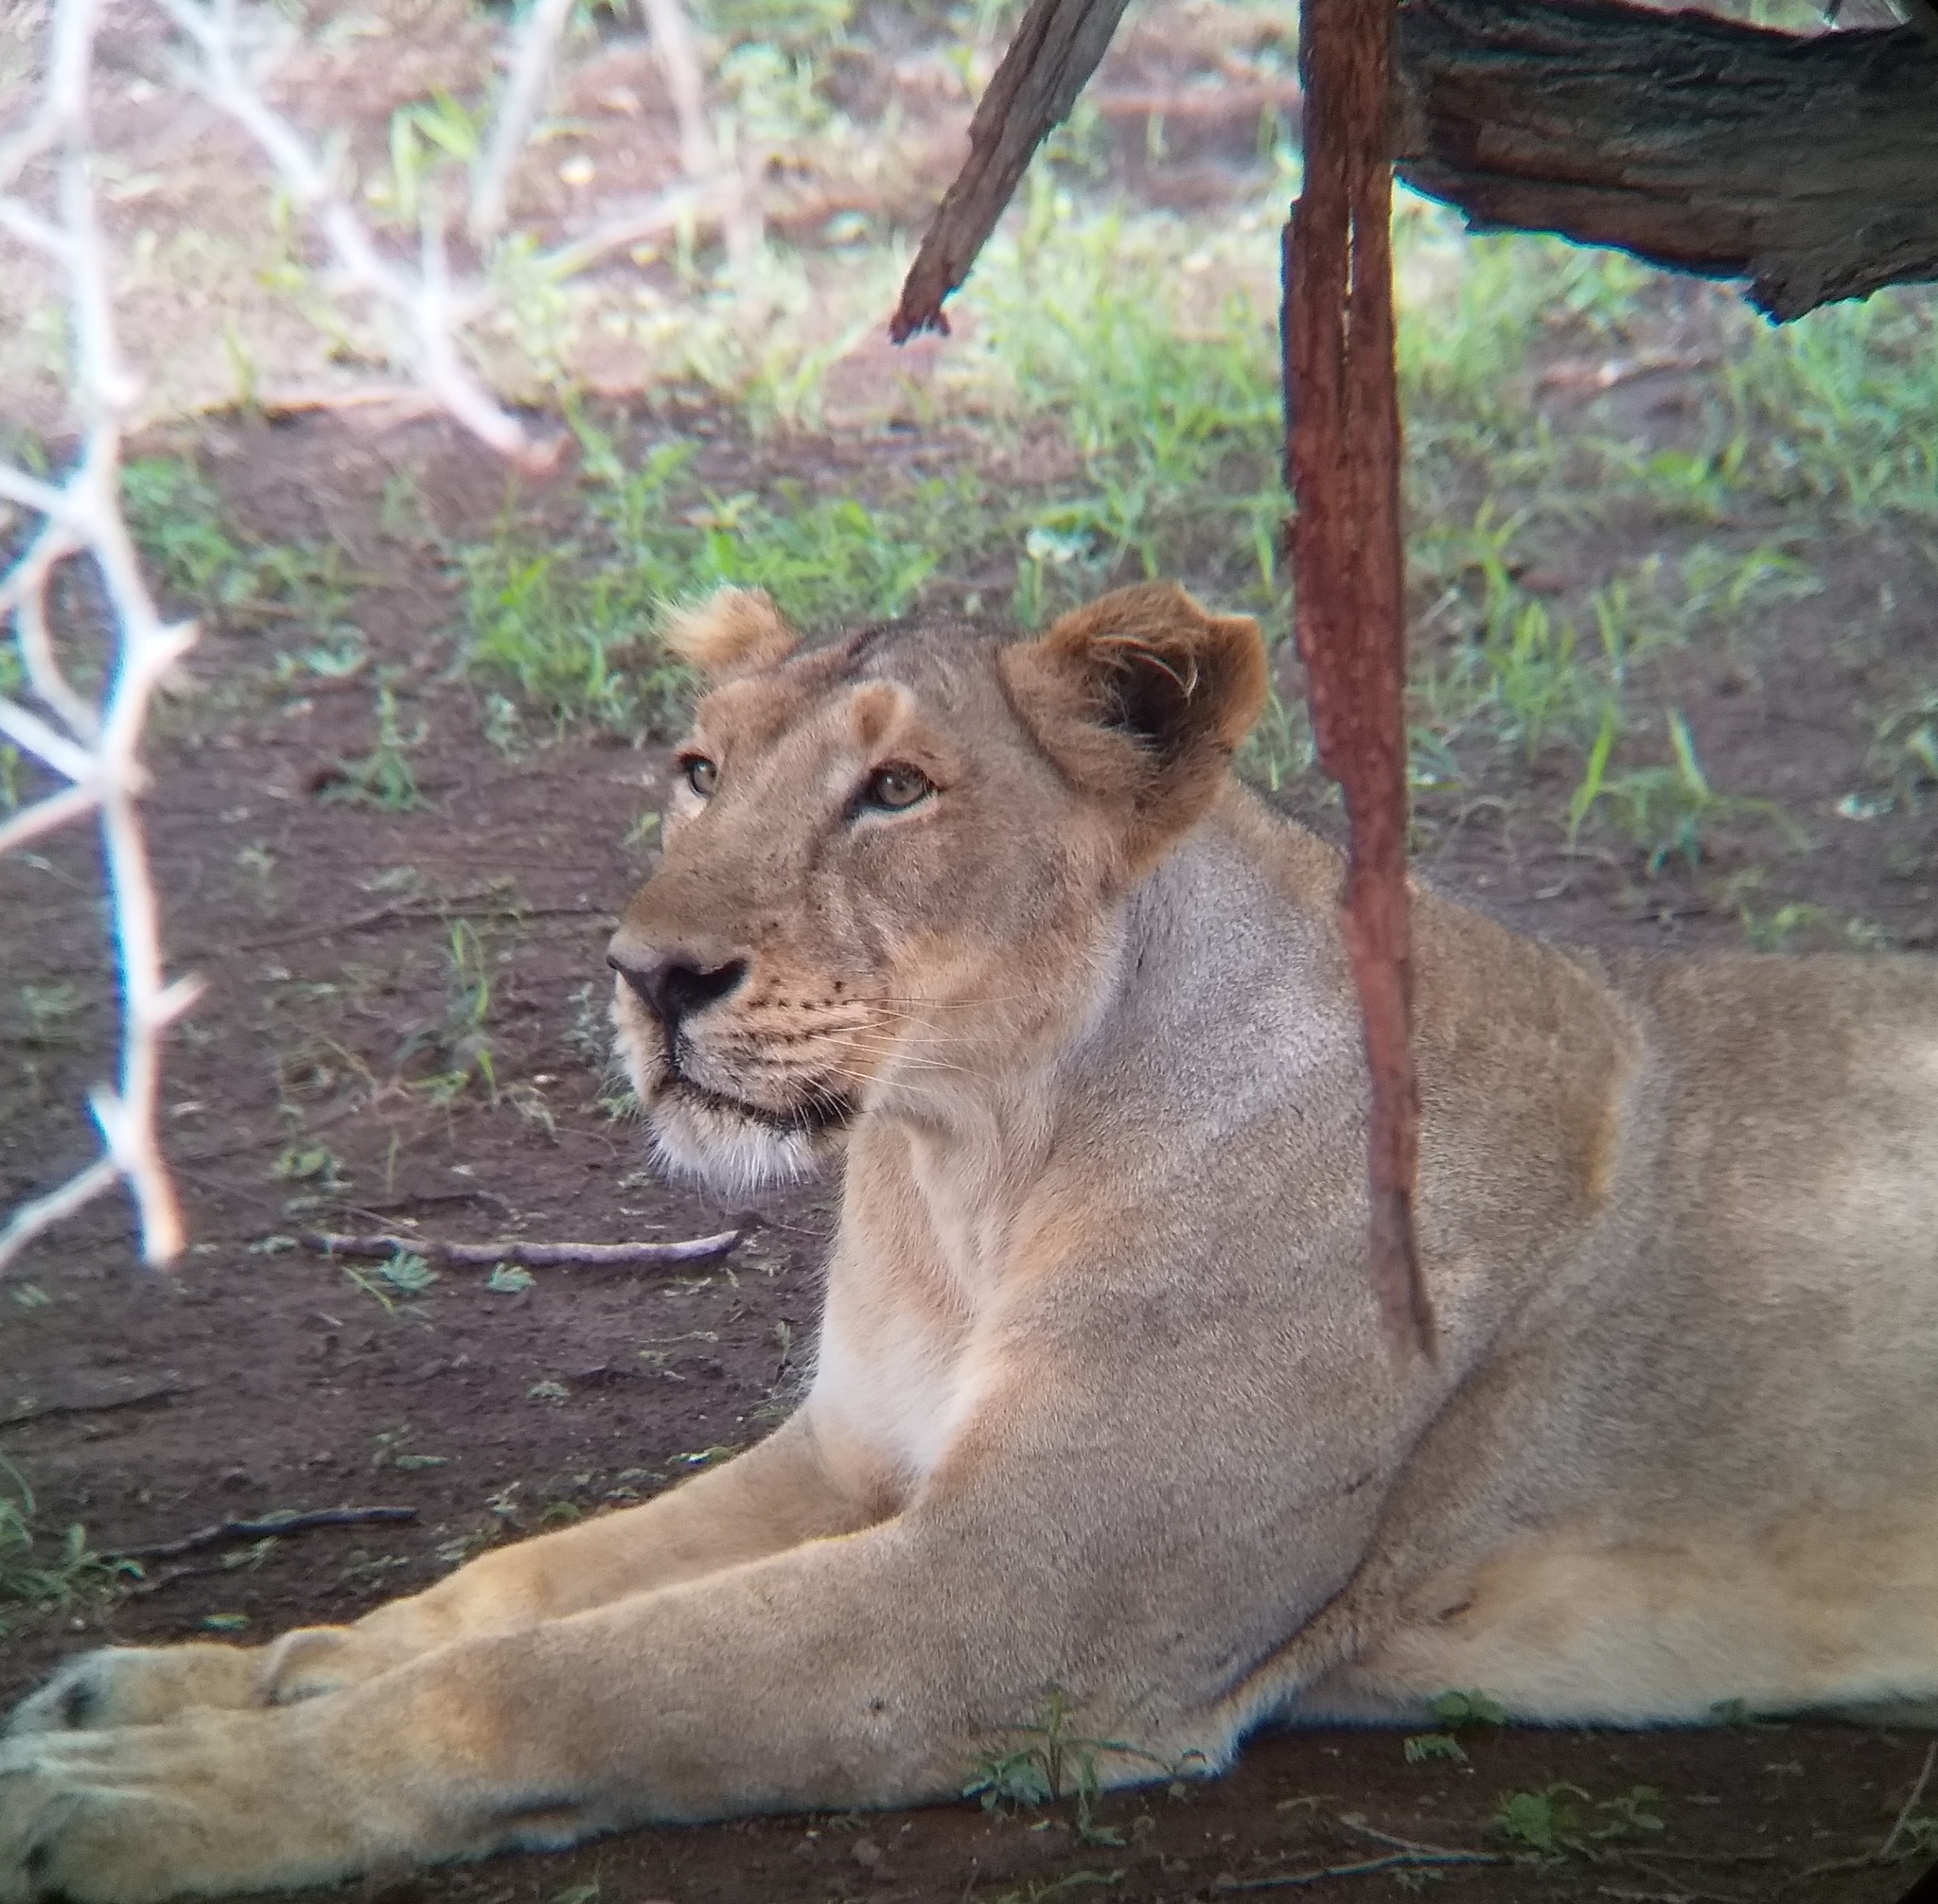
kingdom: Animalia
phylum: Chordata
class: Mammalia
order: Carnivora
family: Felidae
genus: Panthera
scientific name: Panthera leo
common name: Lion
